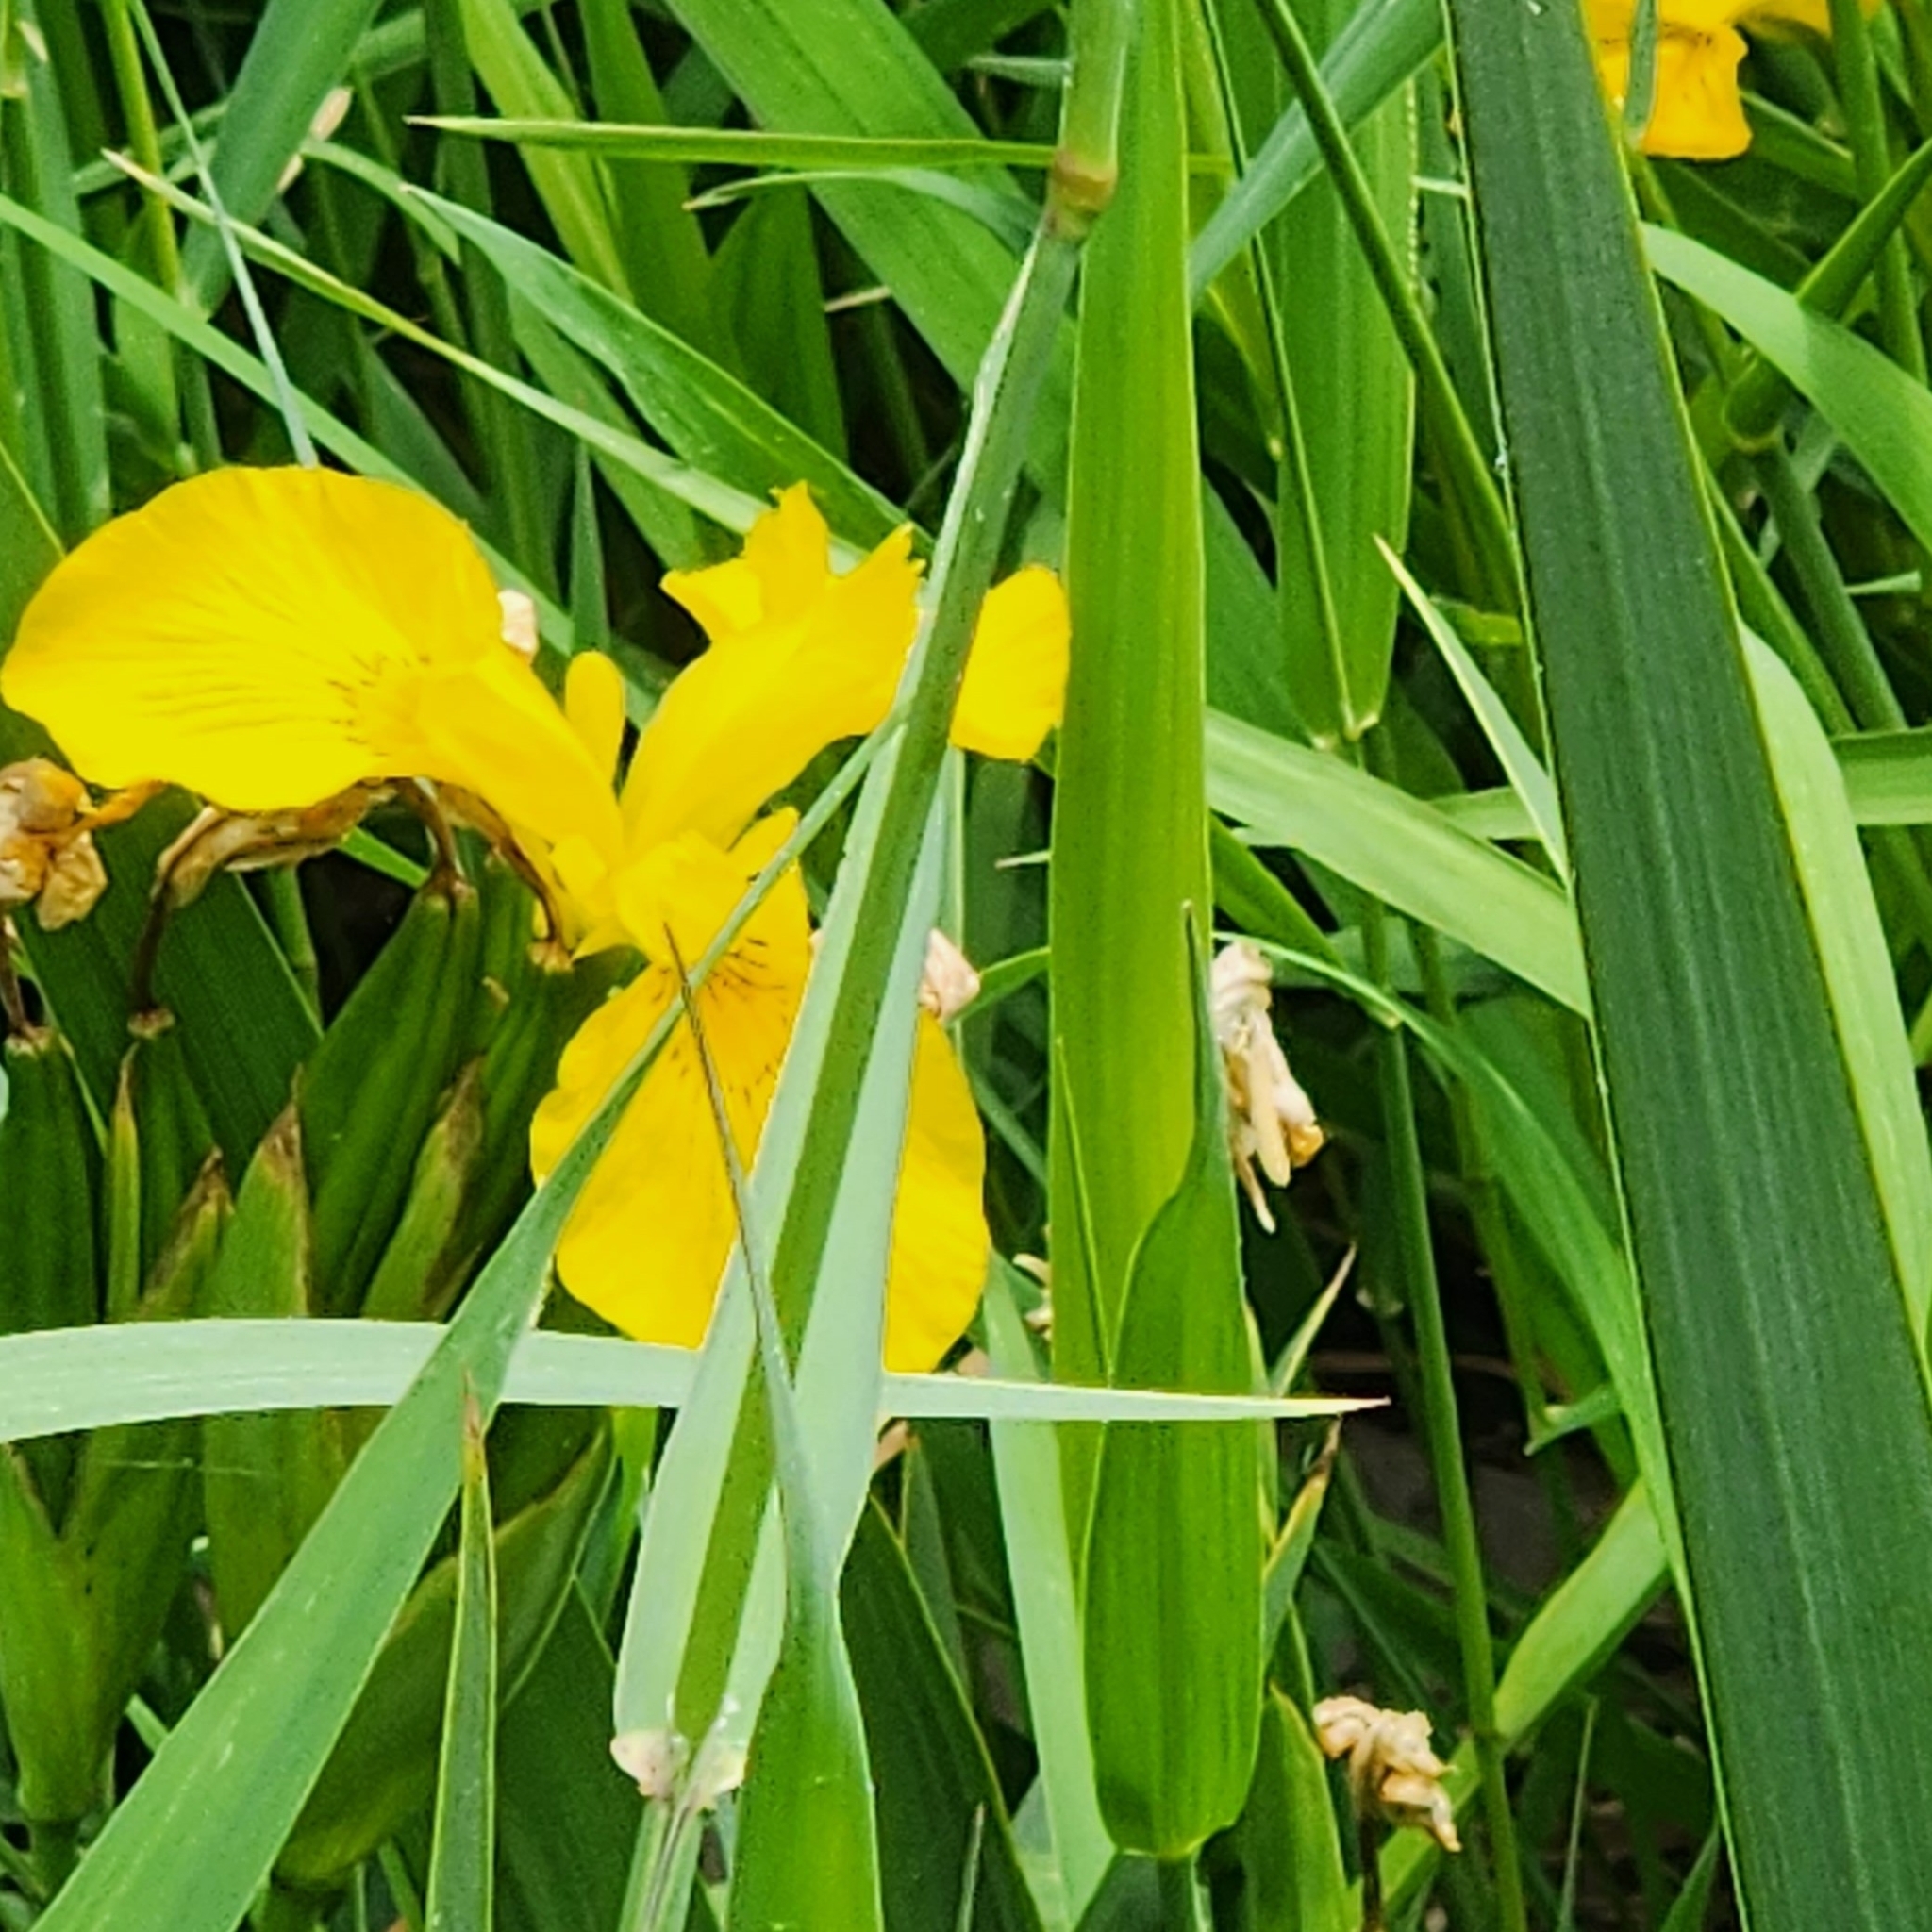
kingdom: Plantae
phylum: Tracheophyta
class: Liliopsida
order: Asparagales
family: Iridaceae
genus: Iris
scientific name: Iris pseudacorus
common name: Yellow flag
